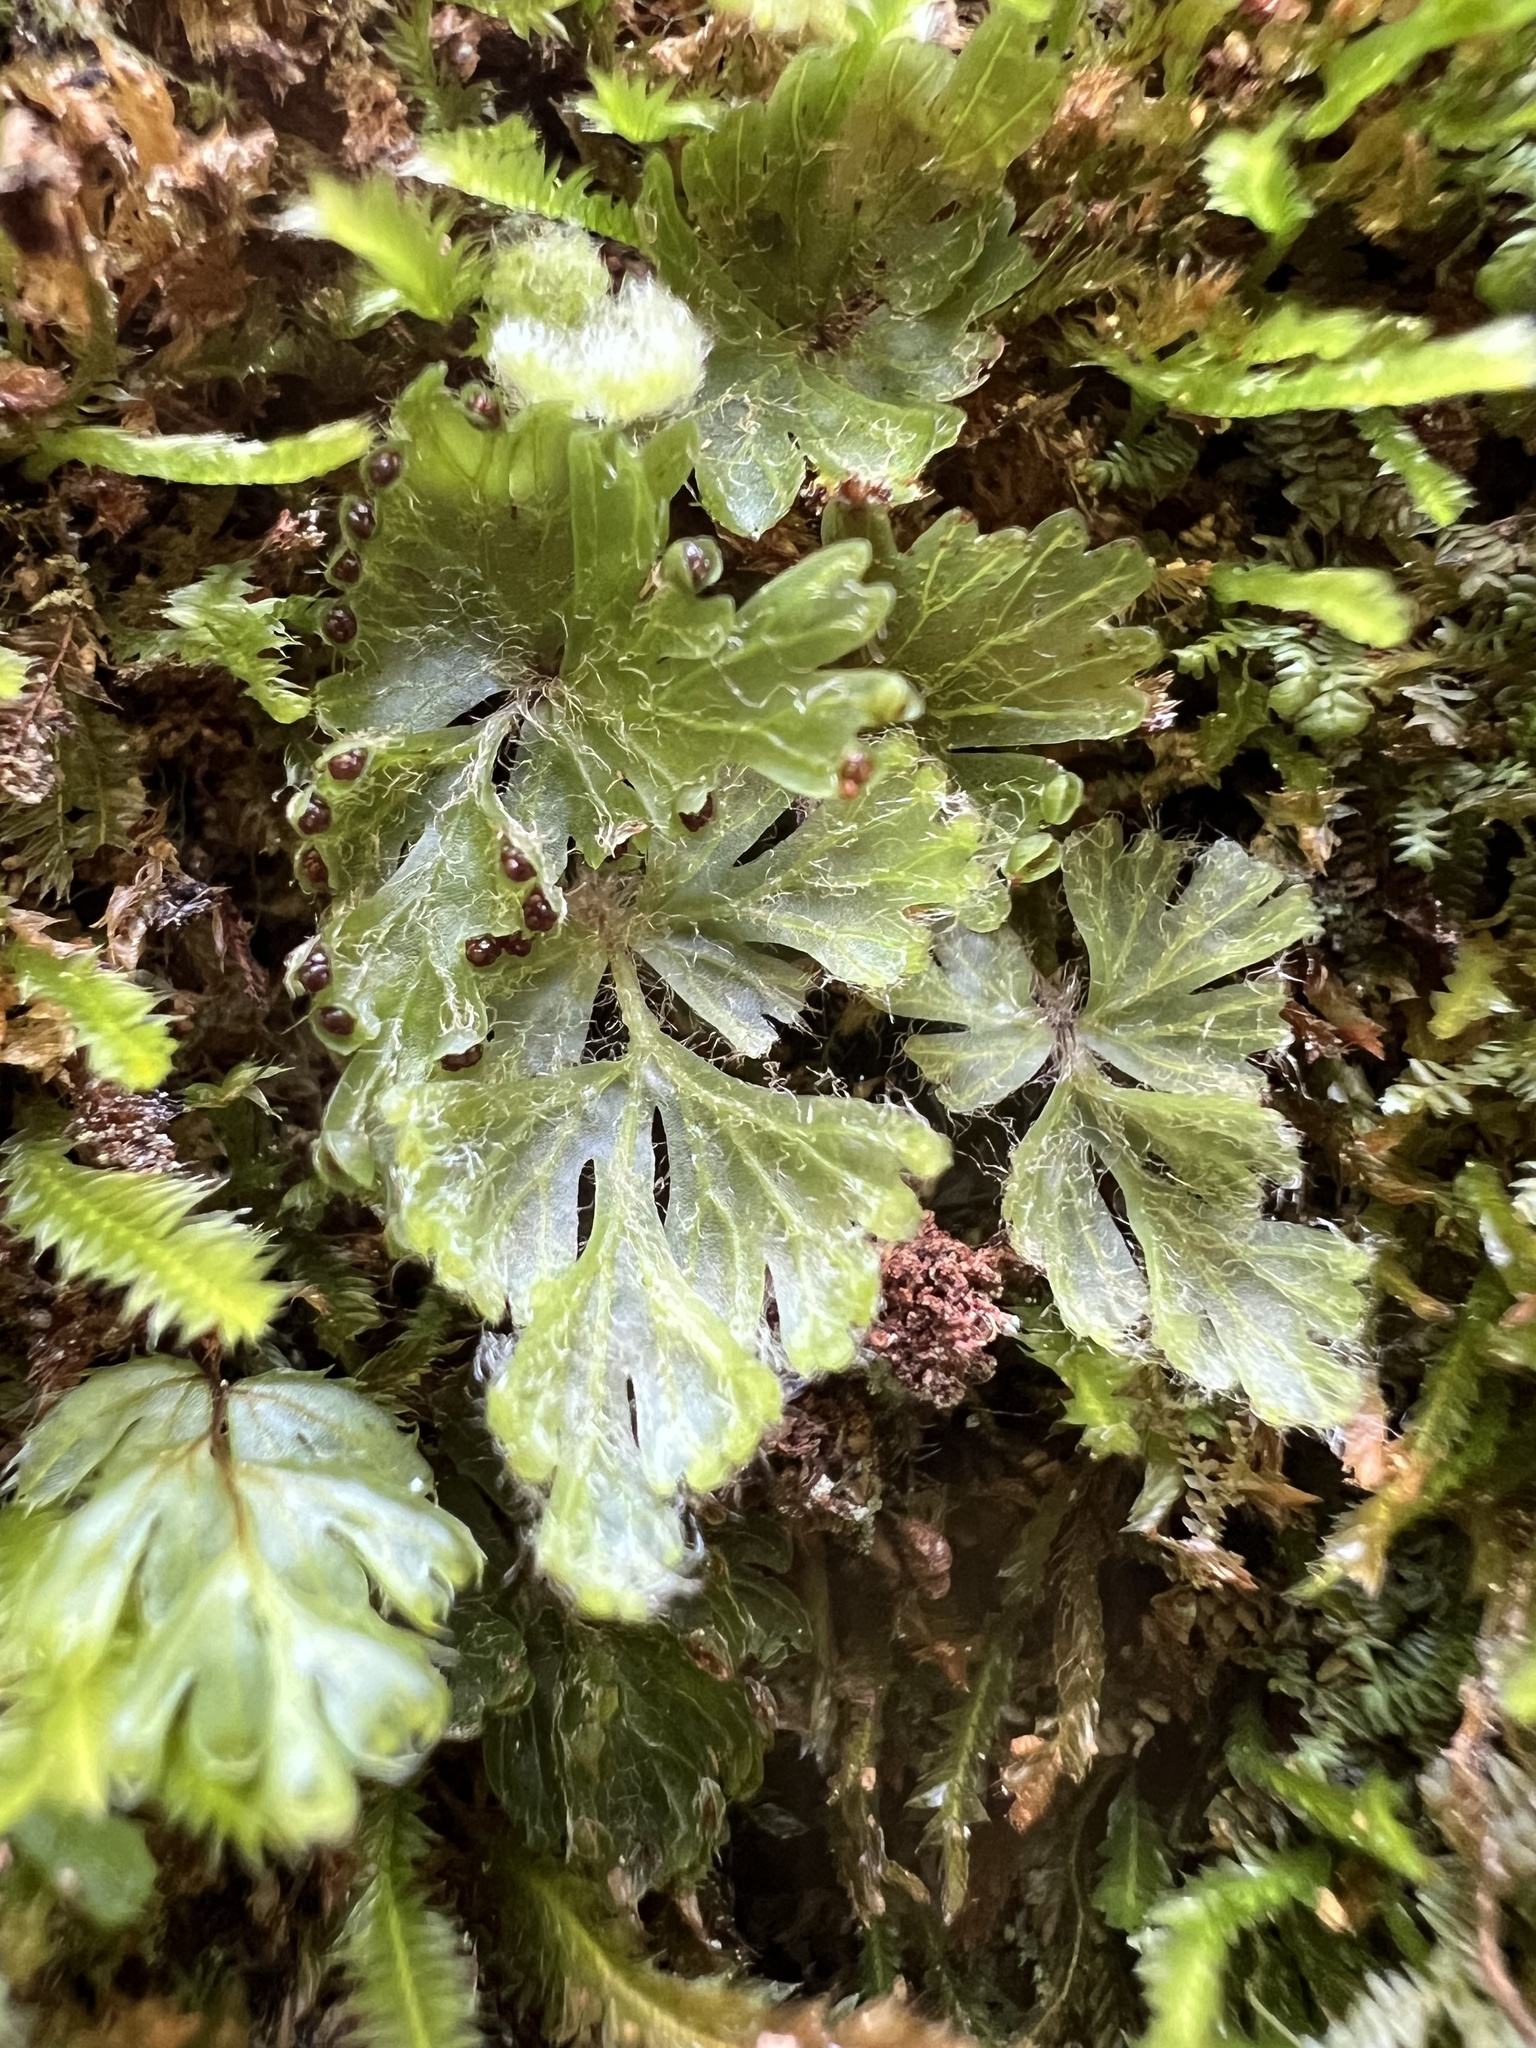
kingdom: Plantae
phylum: Tracheophyta
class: Polypodiopsida
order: Hymenophyllales
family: Hymenophyllaceae
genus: Hymenophyllum
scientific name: Hymenophyllum rufescens
